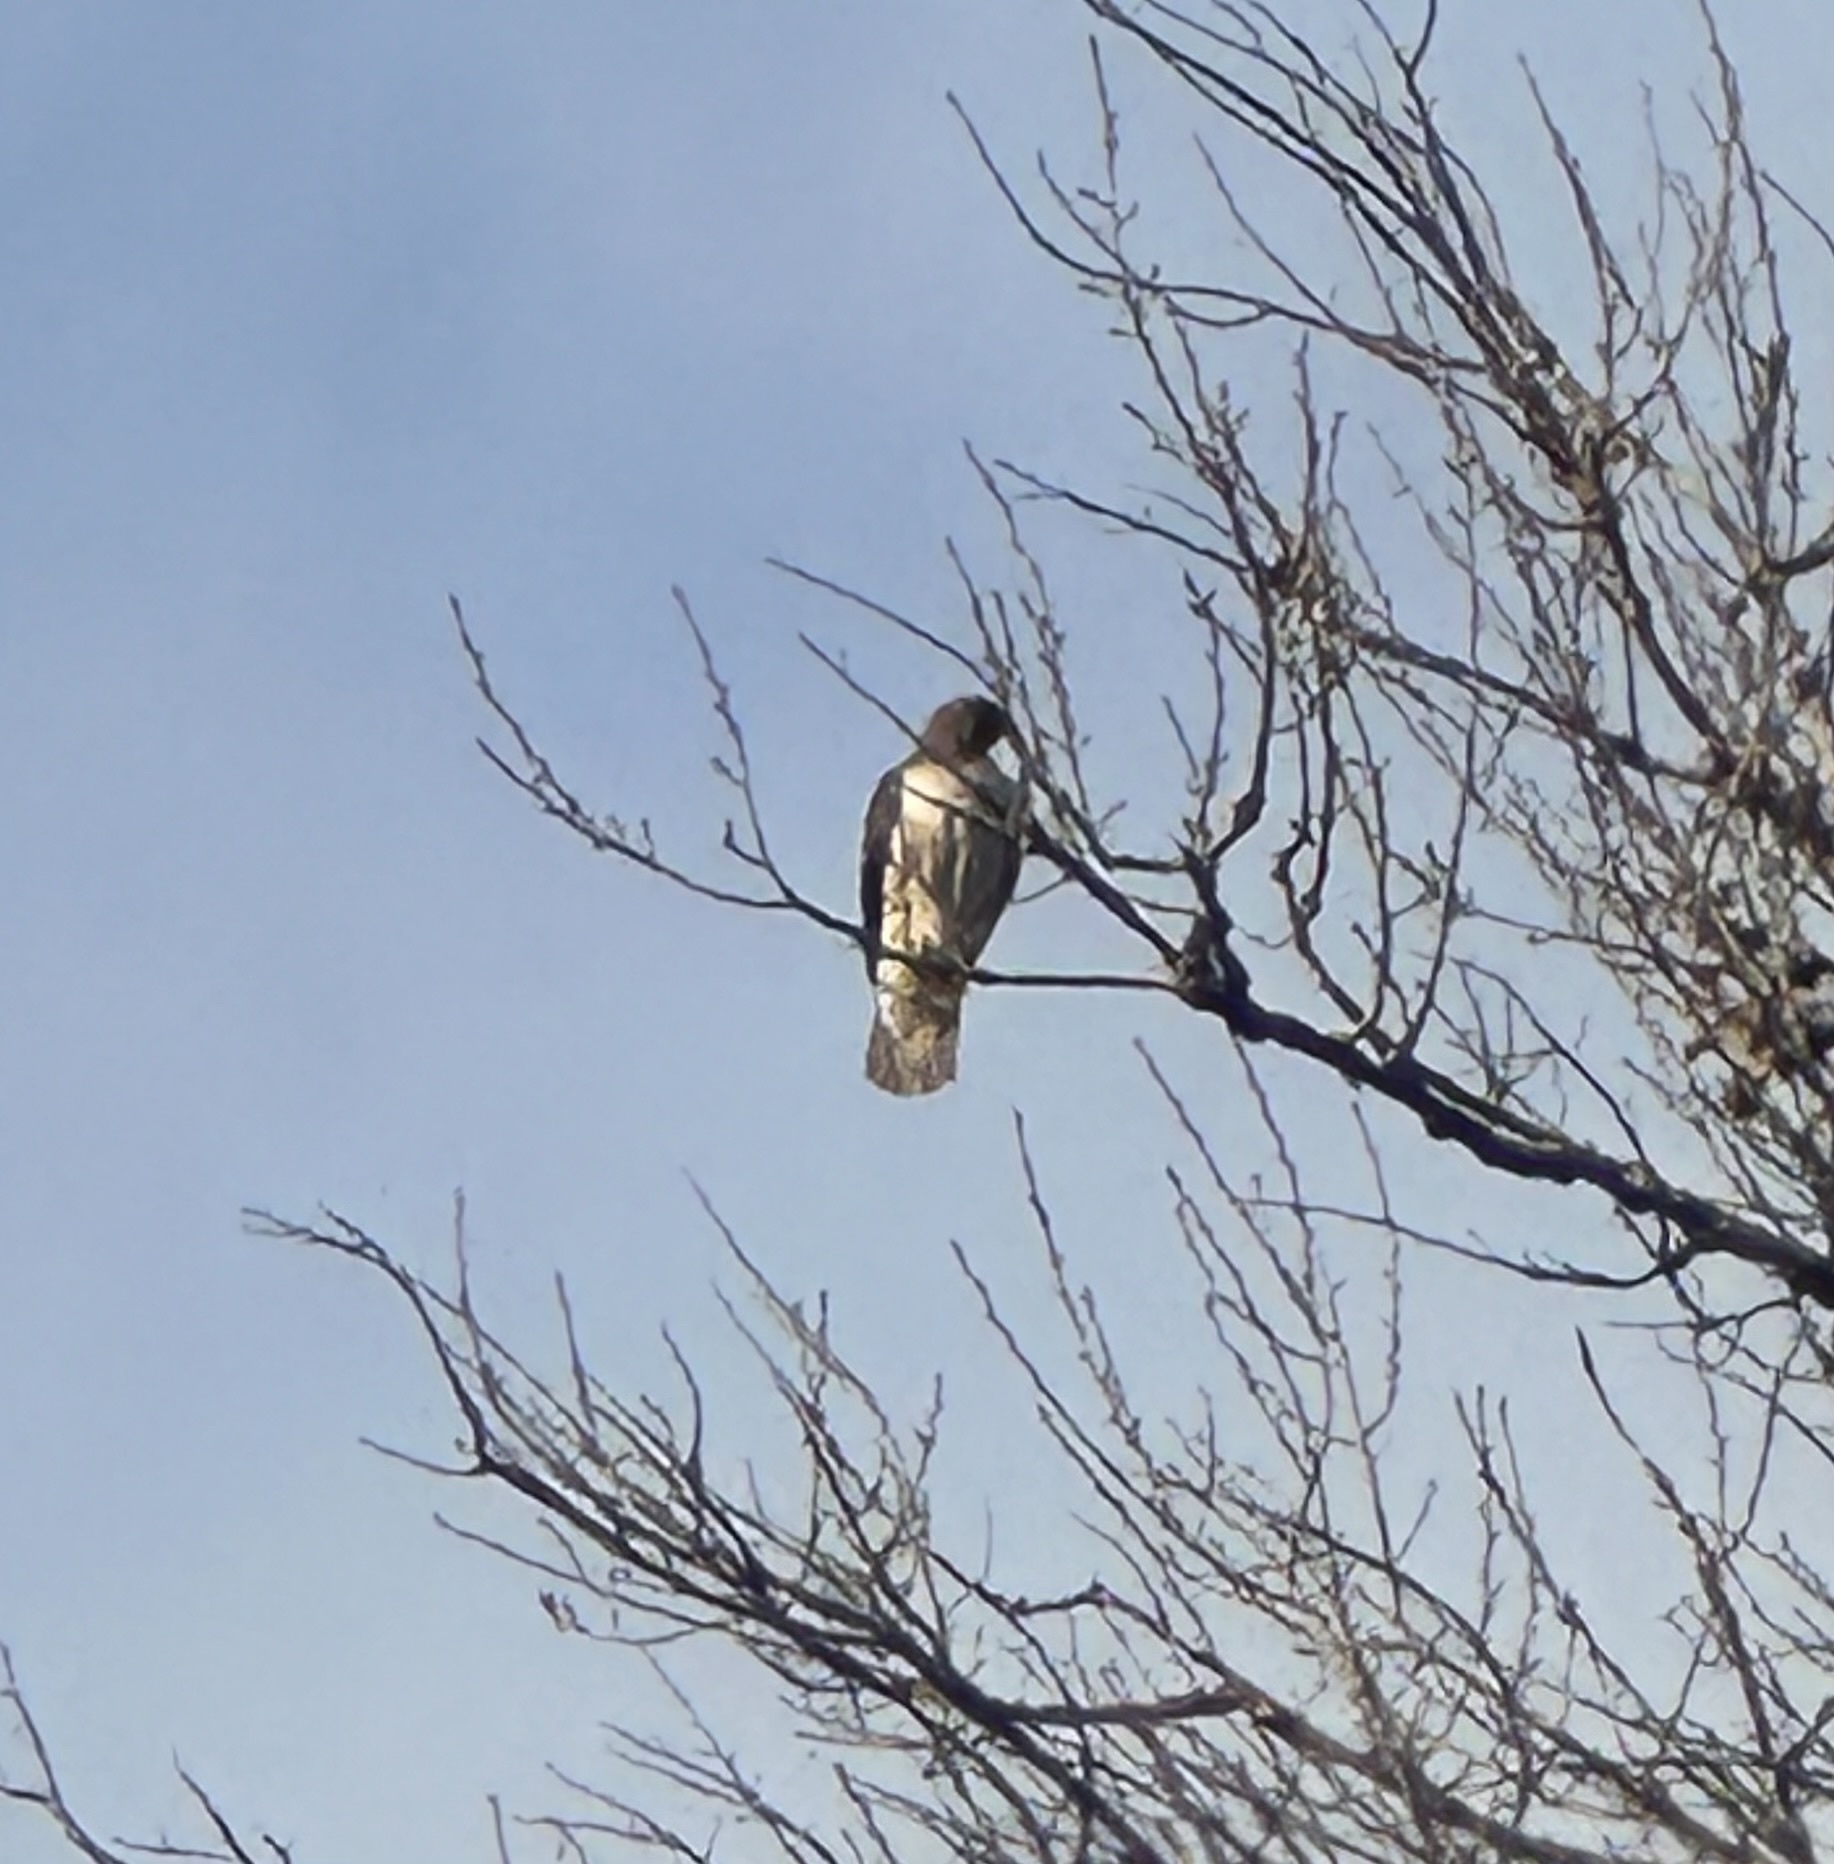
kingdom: Animalia
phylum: Chordata
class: Aves
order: Accipitriformes
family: Accipitridae
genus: Buteo
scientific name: Buteo jamaicensis
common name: Red-tailed hawk
